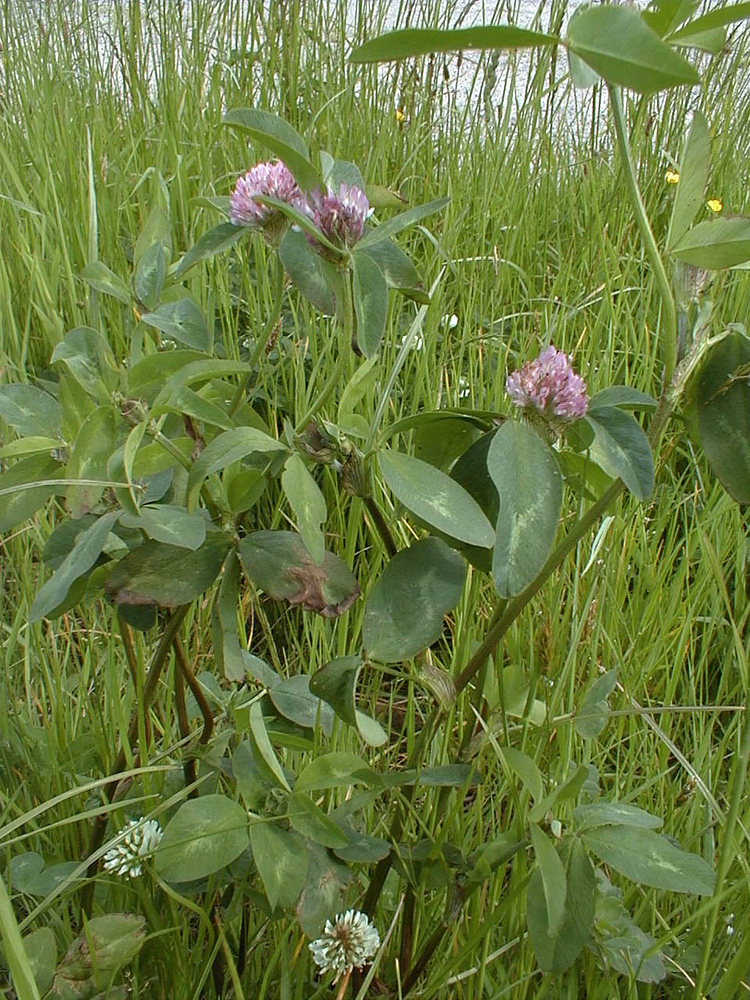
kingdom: Plantae
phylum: Tracheophyta
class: Magnoliopsida
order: Fabales
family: Fabaceae
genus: Trifolium
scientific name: Trifolium pratense
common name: Red clover
